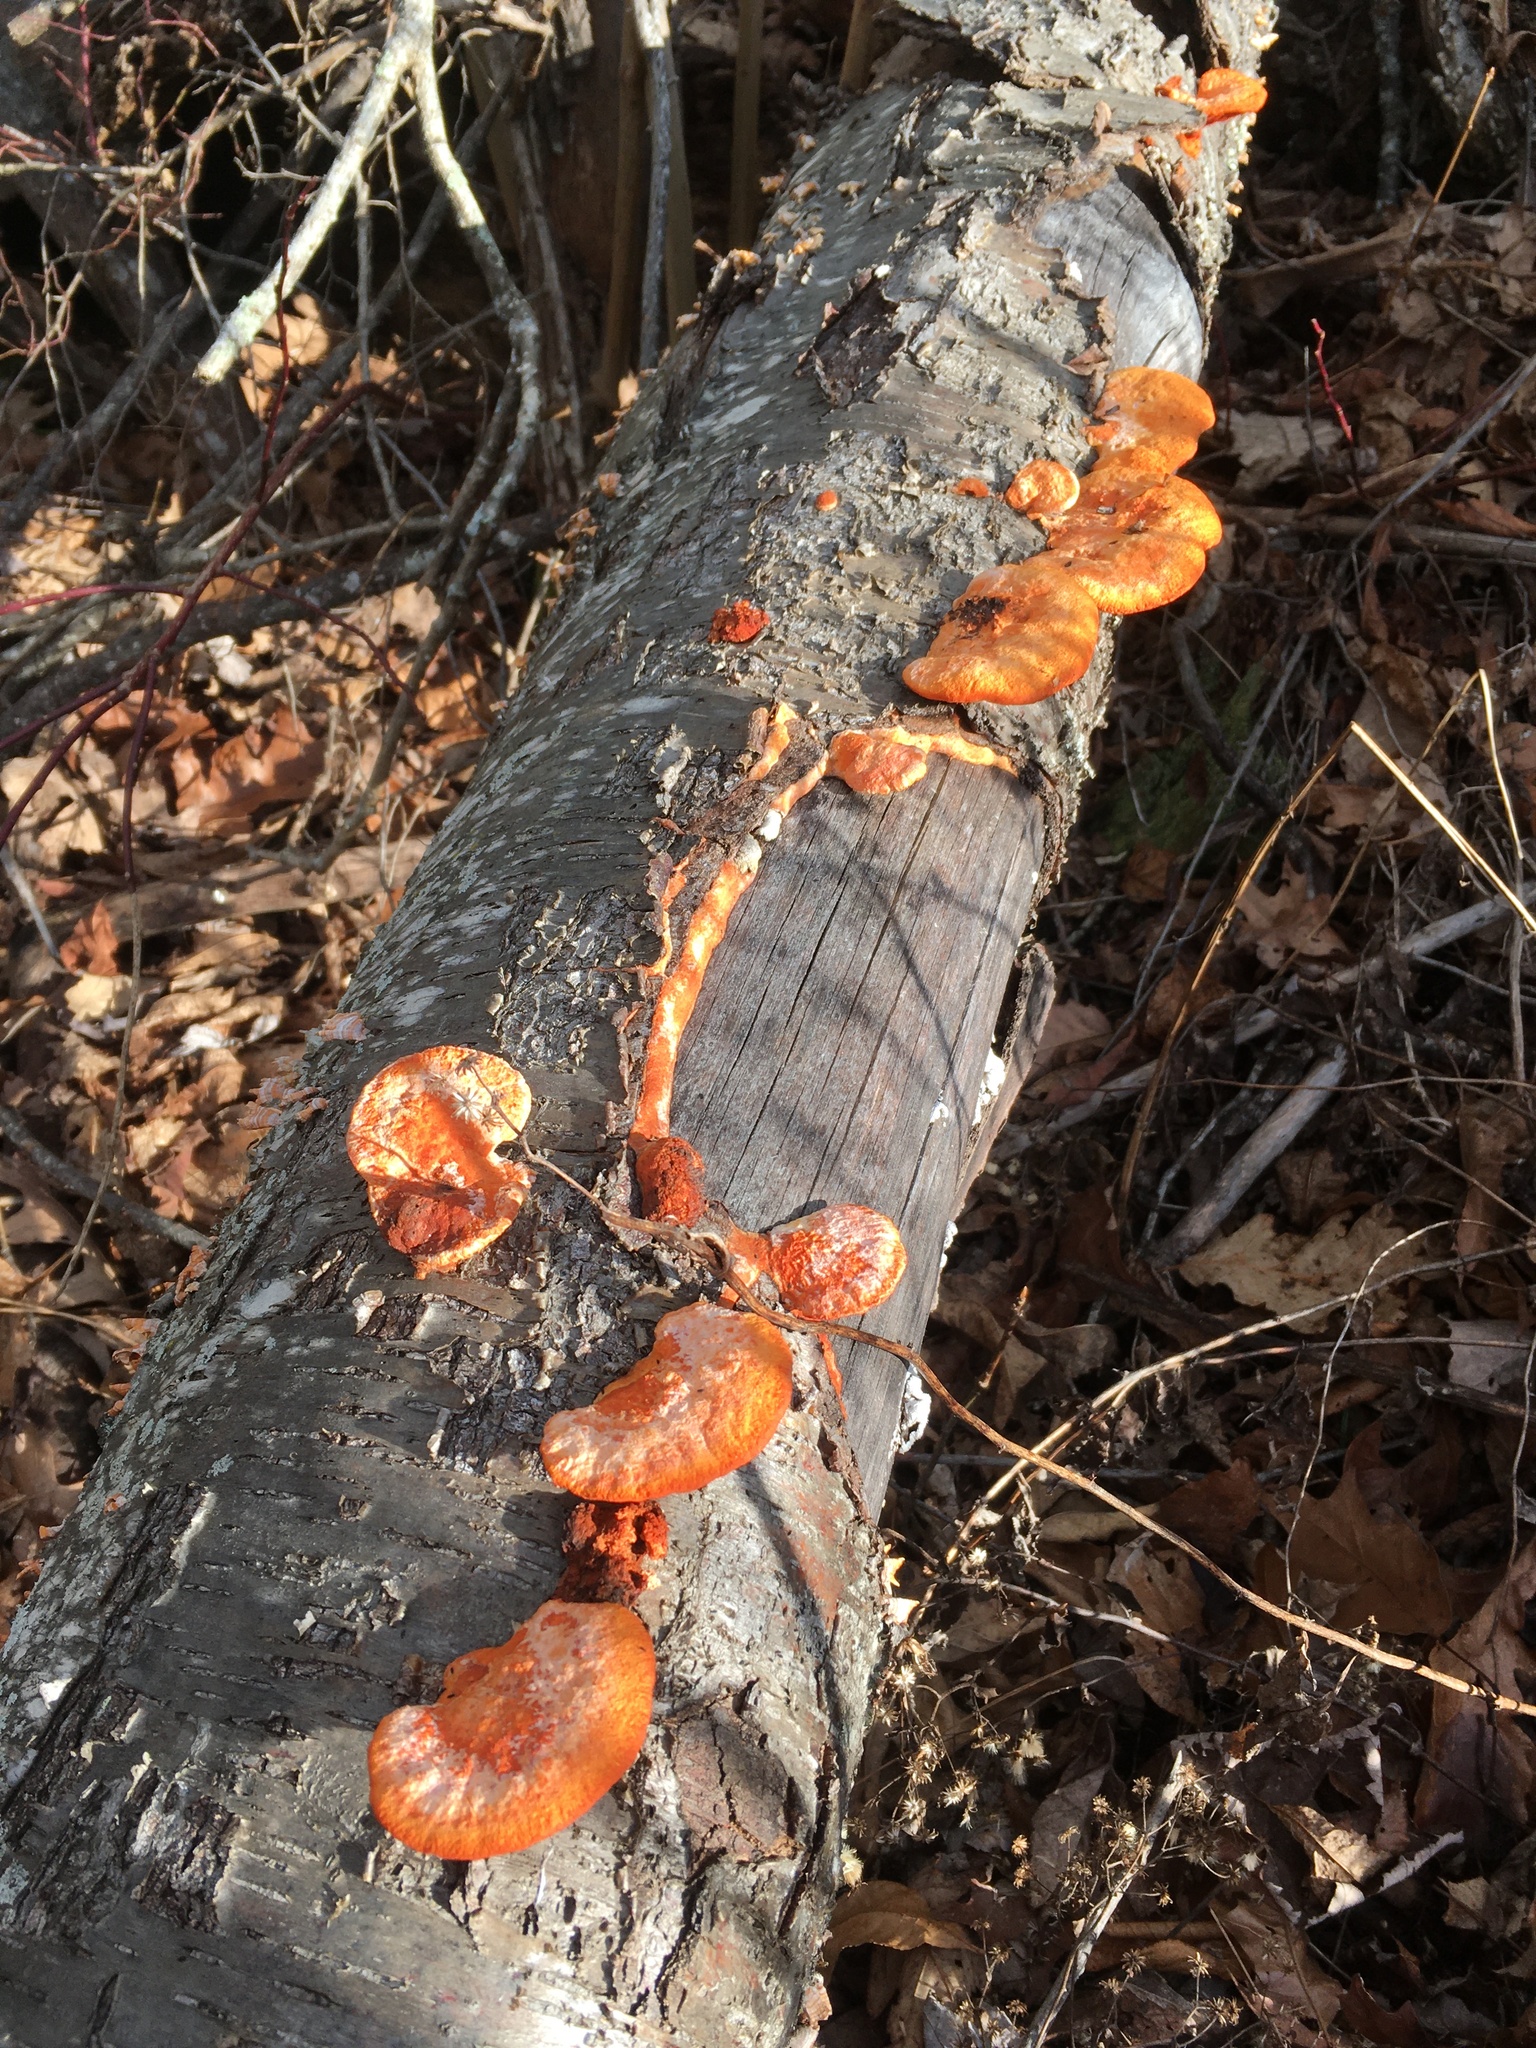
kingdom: Fungi
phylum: Basidiomycota
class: Agaricomycetes
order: Polyporales
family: Polyporaceae
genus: Trametes
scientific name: Trametes cinnabarina
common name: Northern cinnabar polypore
